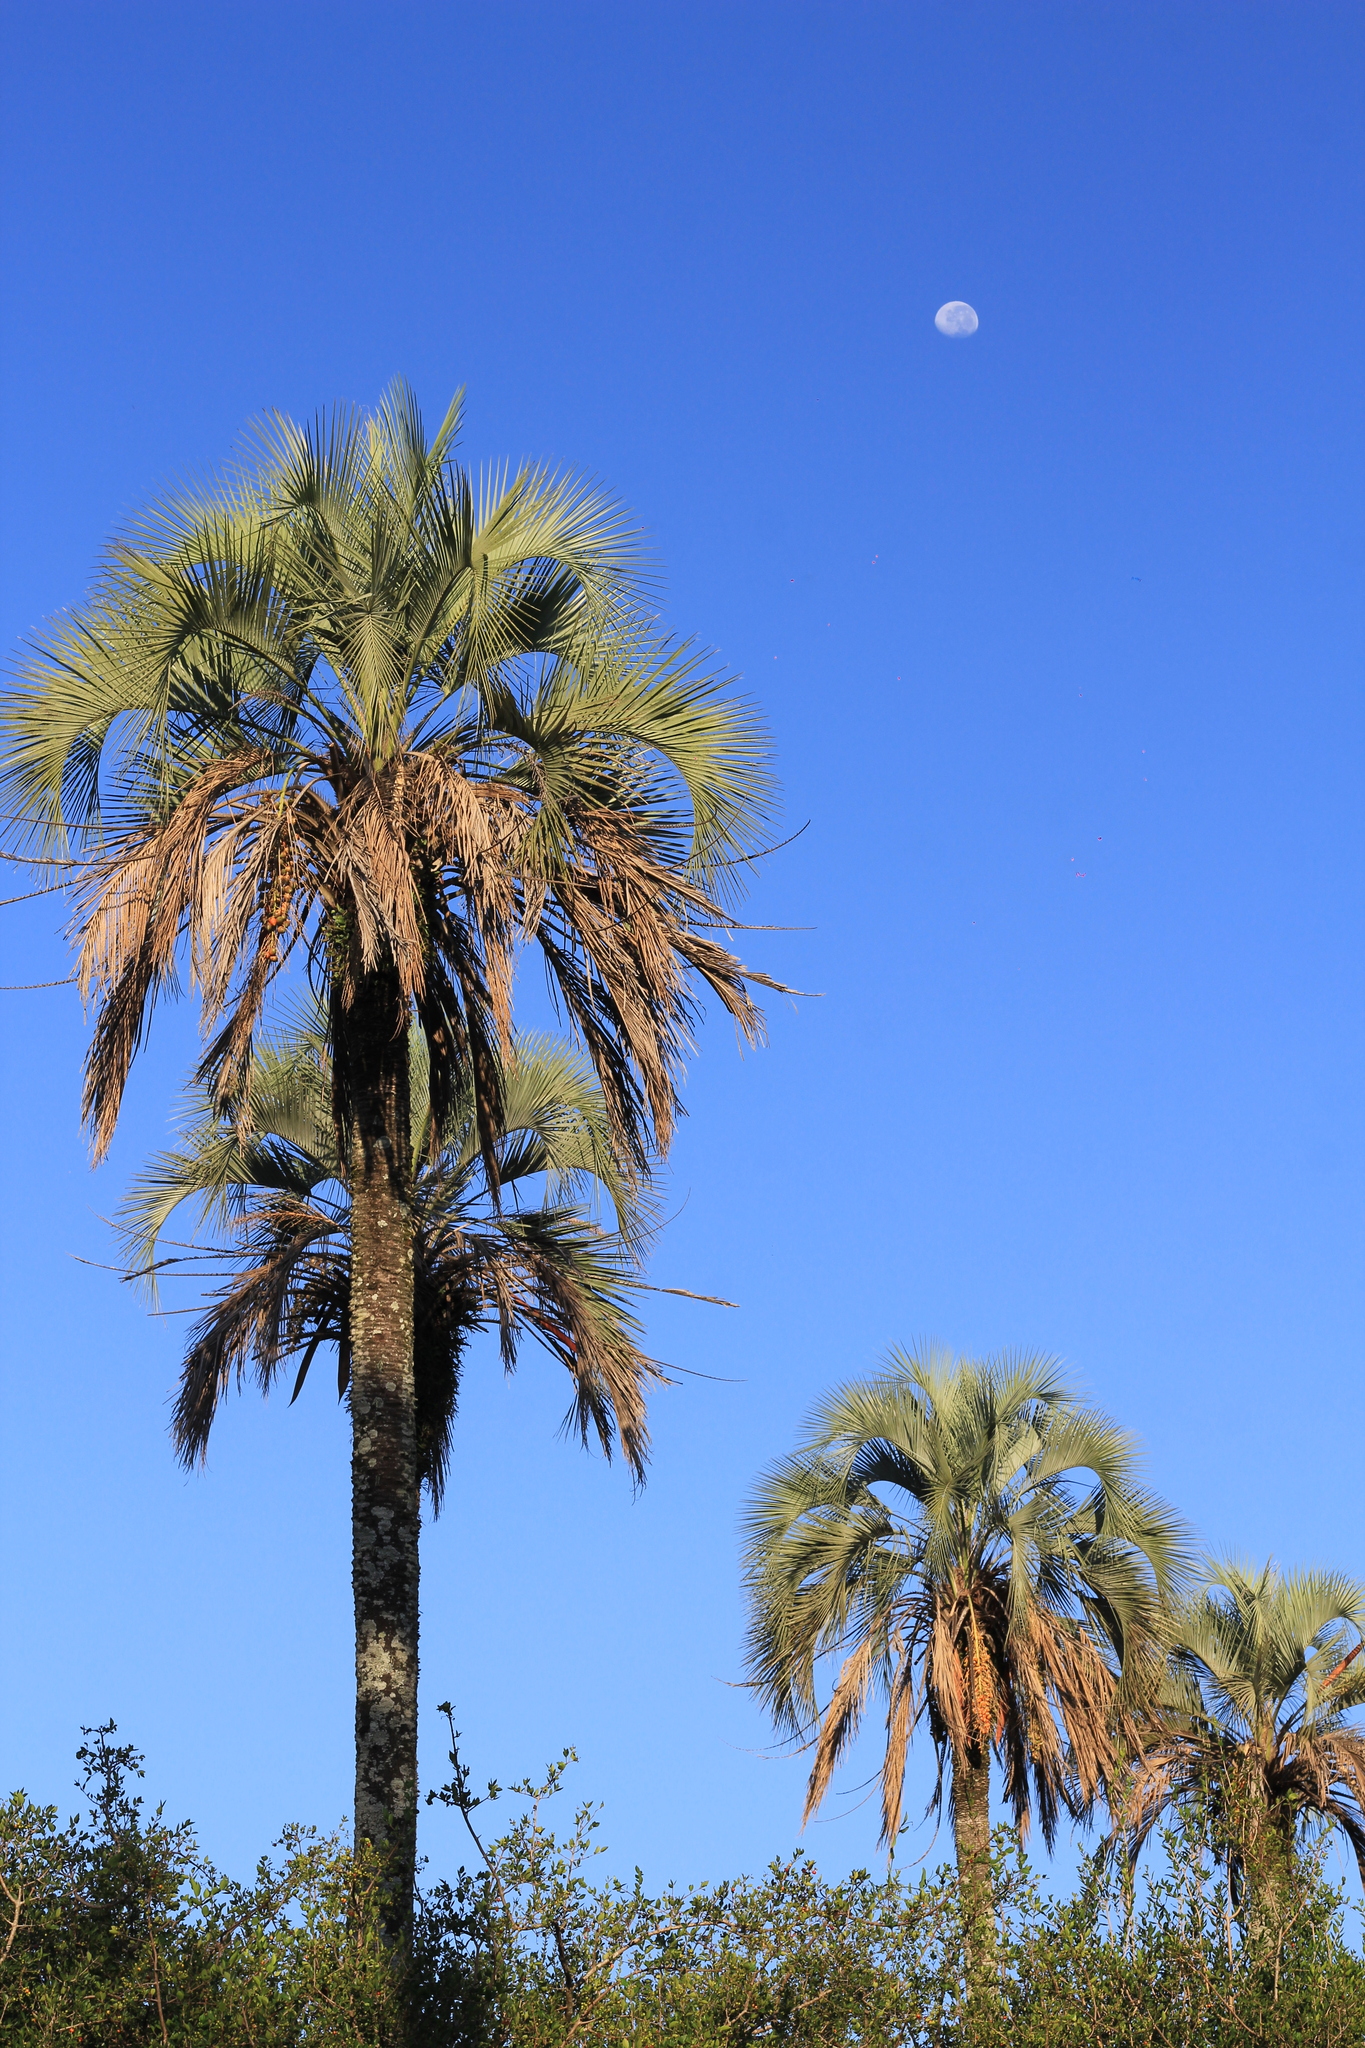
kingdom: Plantae
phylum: Tracheophyta
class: Liliopsida
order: Arecales
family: Arecaceae
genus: Butia
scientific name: Butia yatay
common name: Yatay palm
